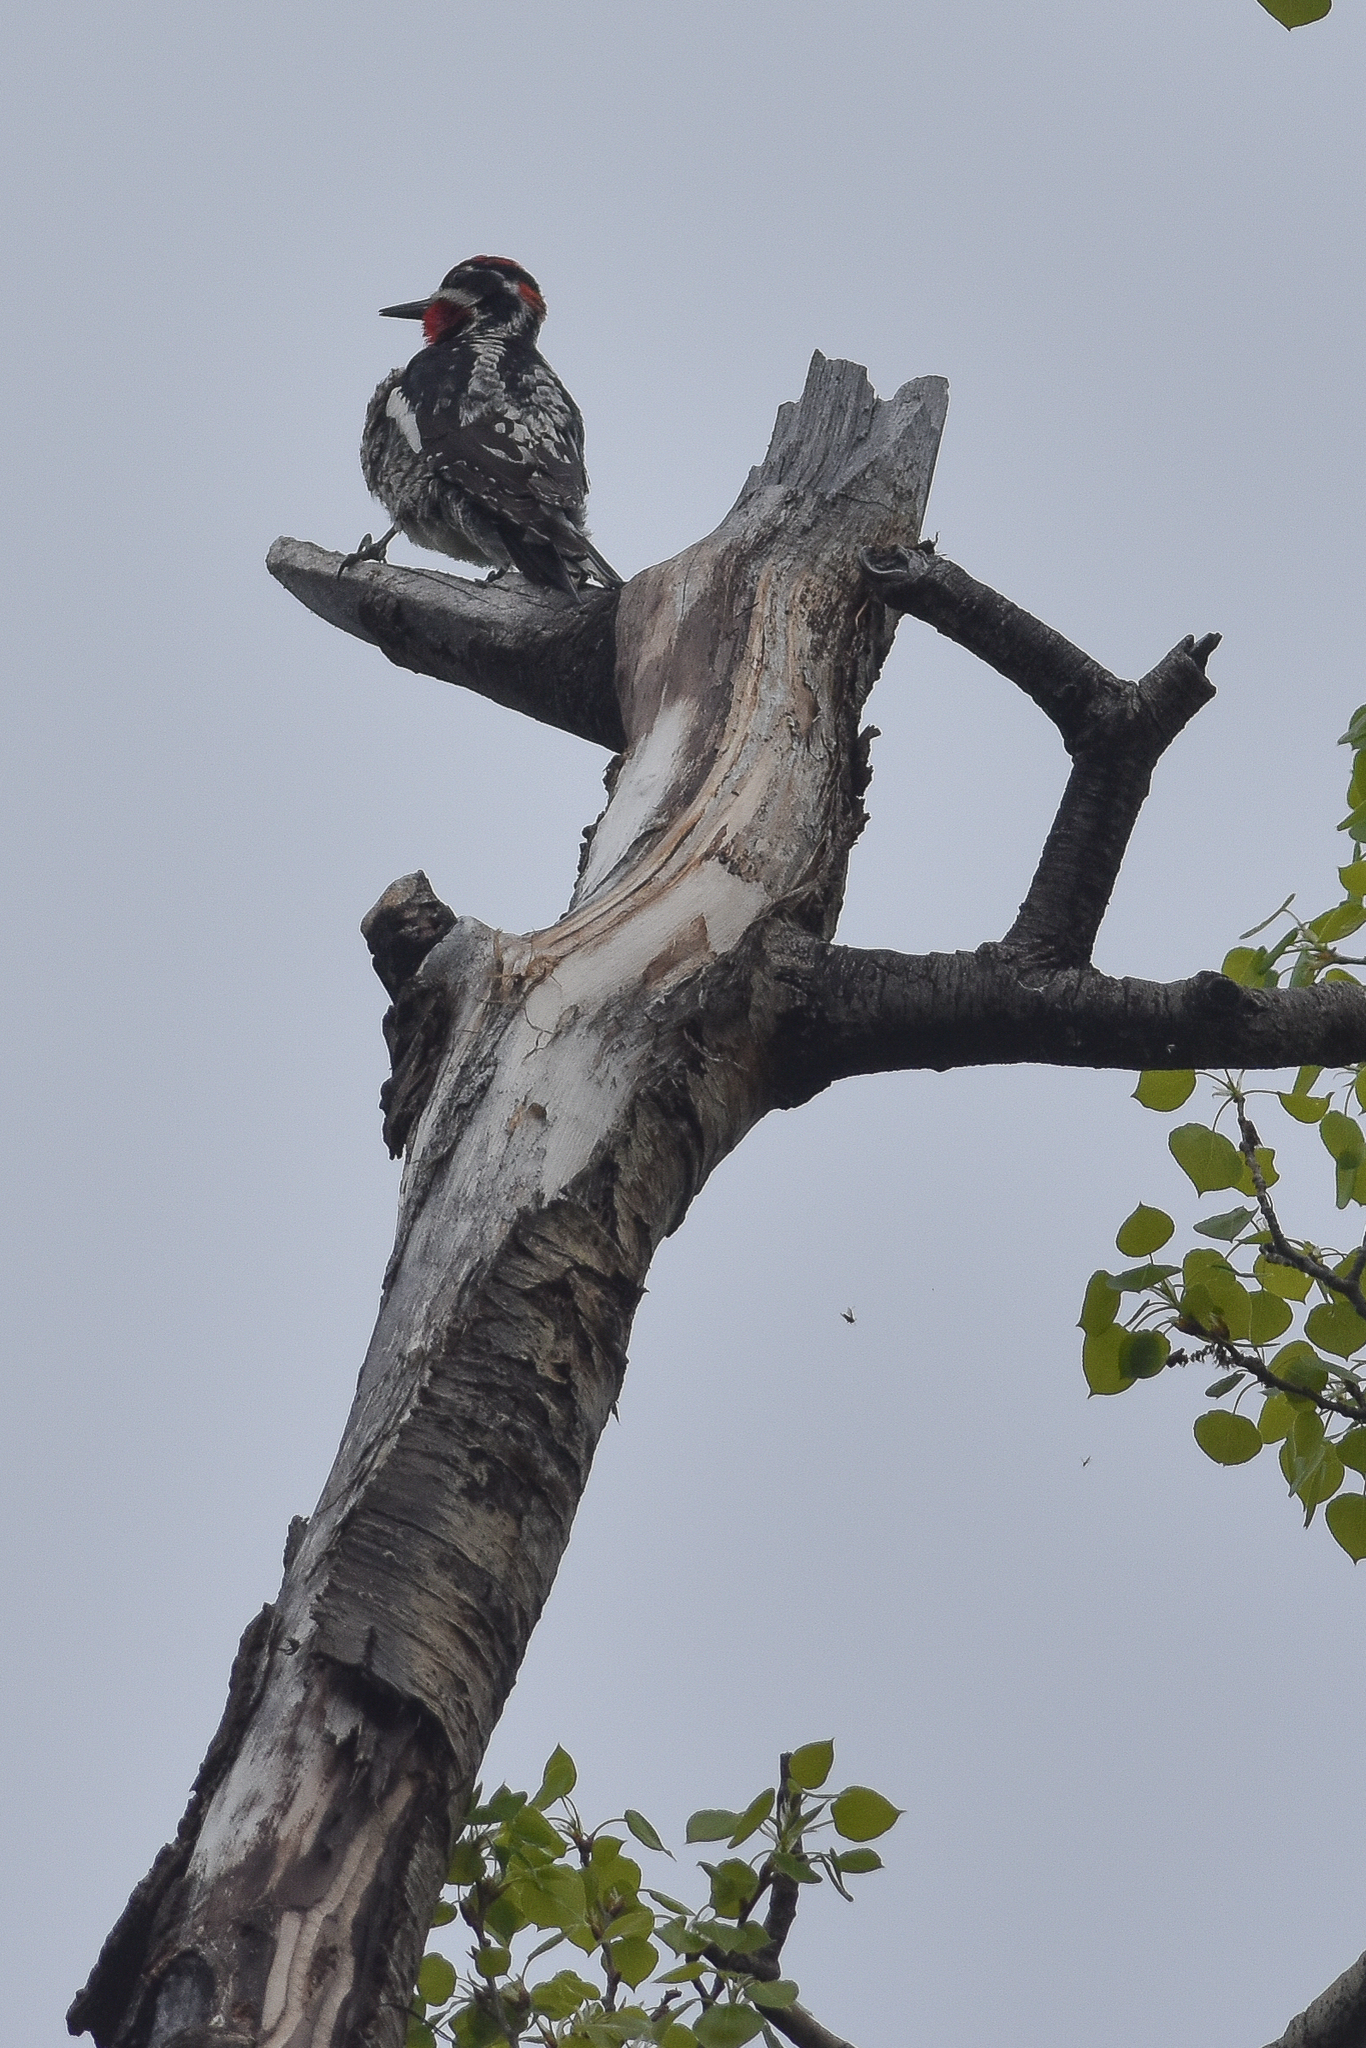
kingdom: Animalia
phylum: Chordata
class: Aves
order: Piciformes
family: Picidae
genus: Sphyrapicus
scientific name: Sphyrapicus nuchalis
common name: Red-naped sapsucker
